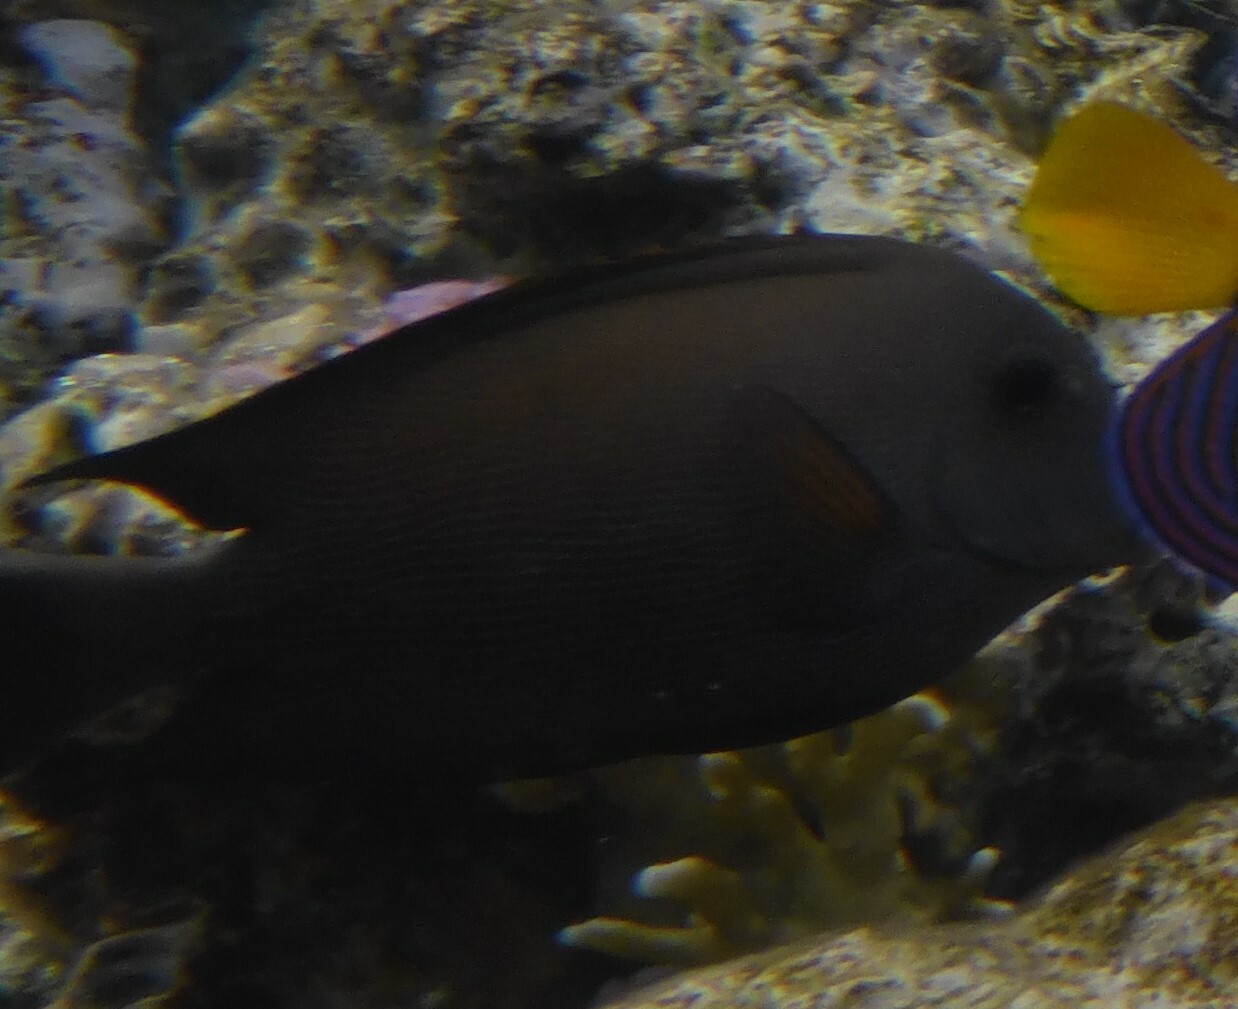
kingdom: Animalia
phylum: Chordata
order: Perciformes
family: Acanthuridae
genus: Ctenochaetus
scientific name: Ctenochaetus striatus
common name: Bristle-toothed surgeonfish
